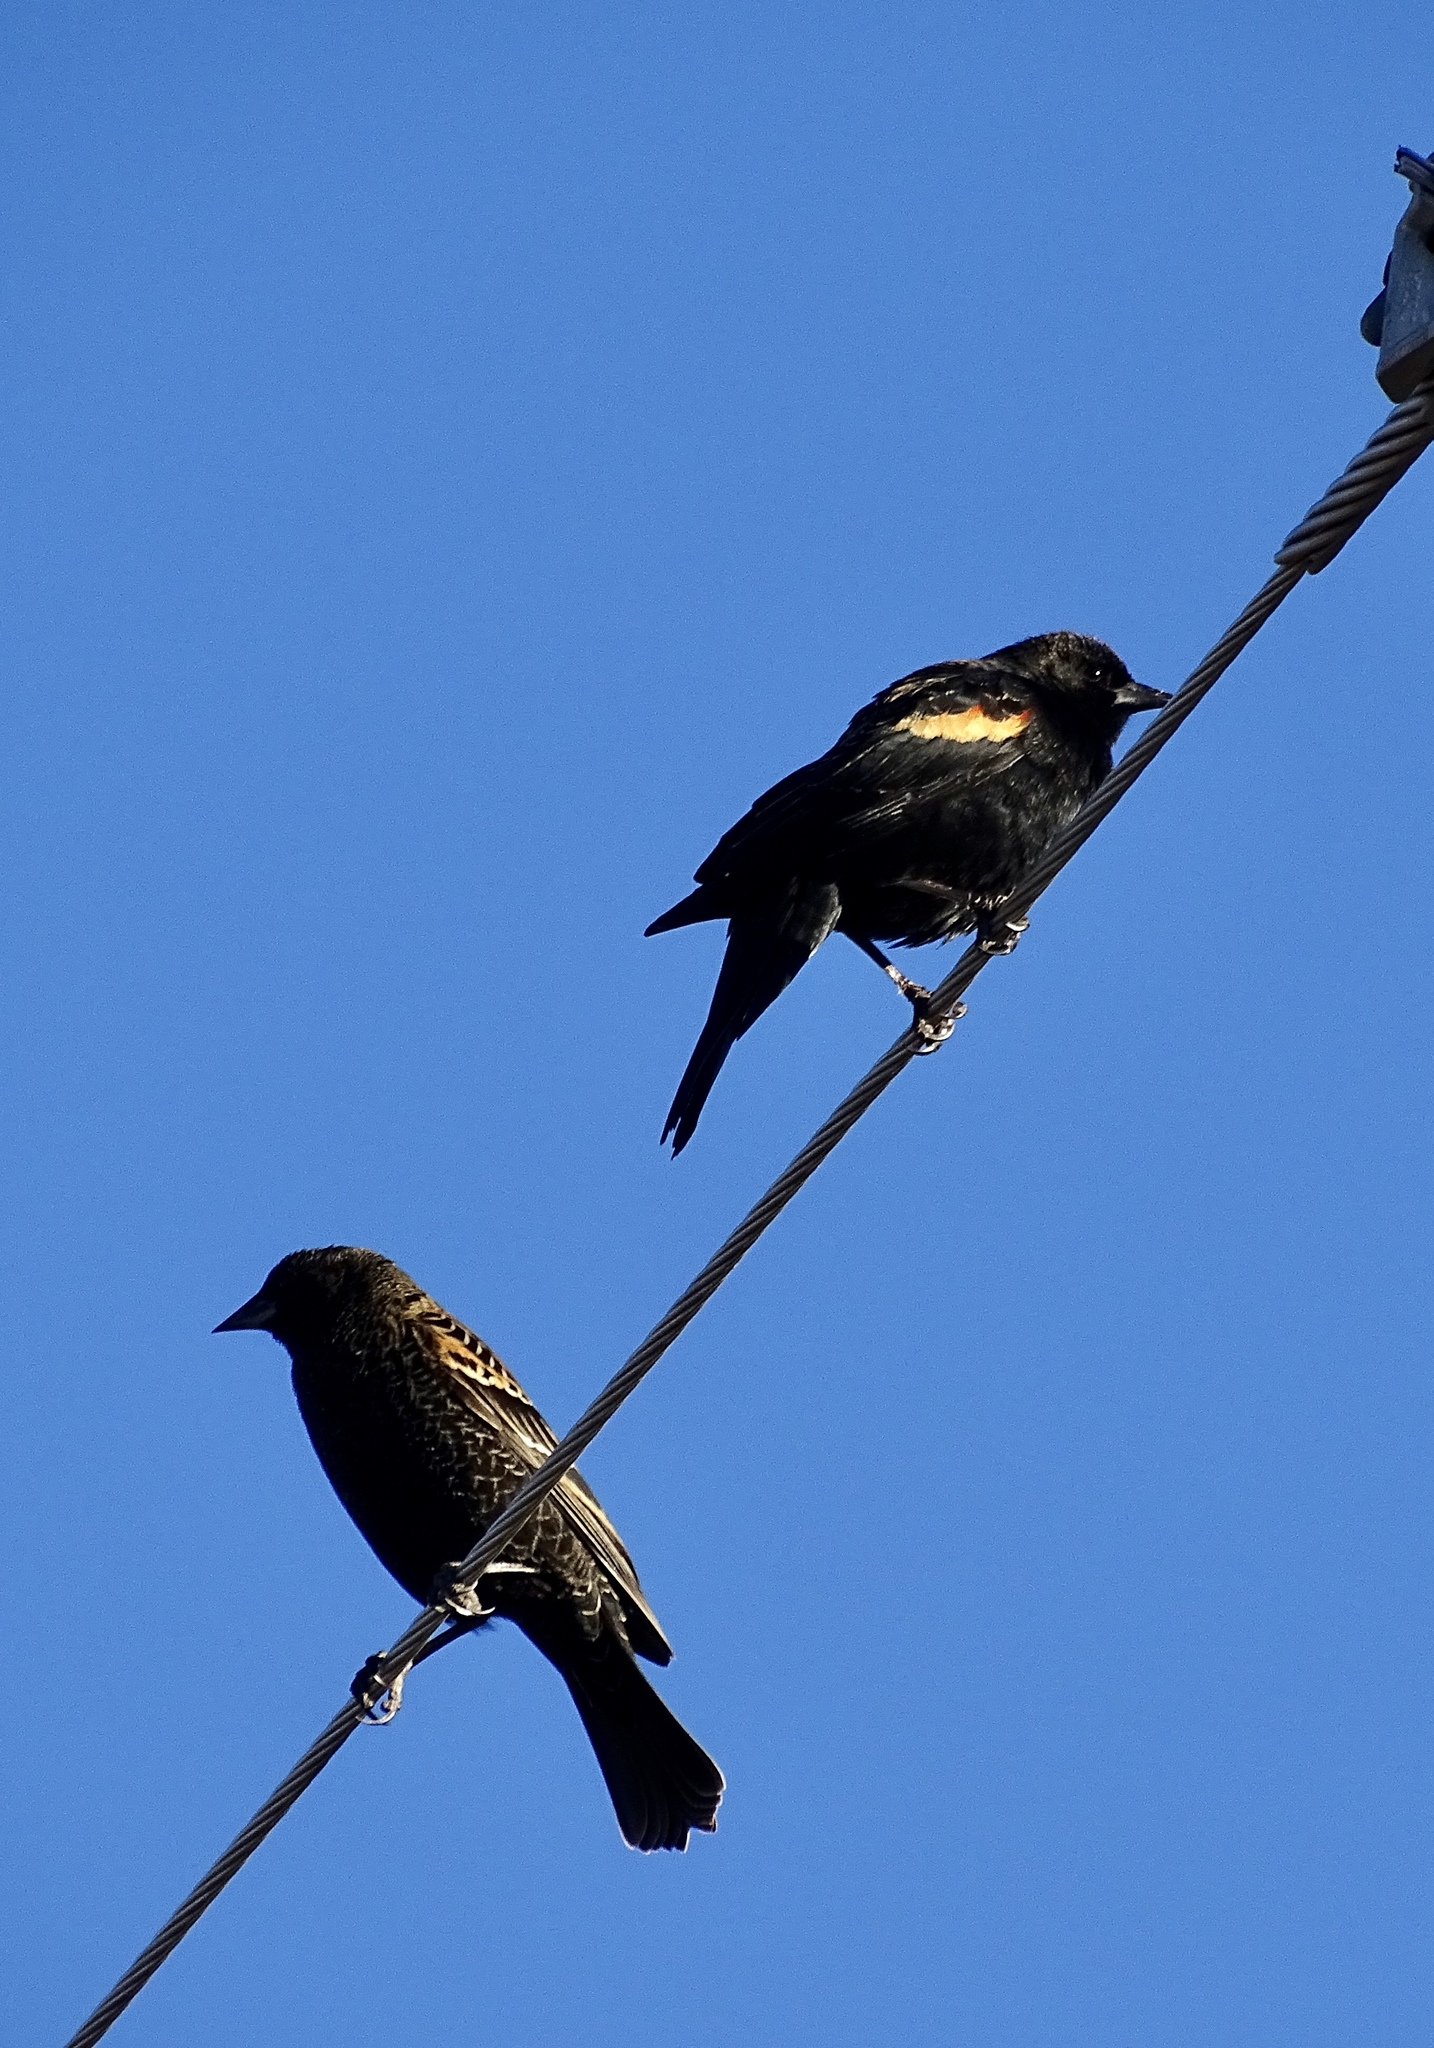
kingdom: Animalia
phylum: Chordata
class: Aves
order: Passeriformes
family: Icteridae
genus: Agelaius
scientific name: Agelaius phoeniceus
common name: Red-winged blackbird
